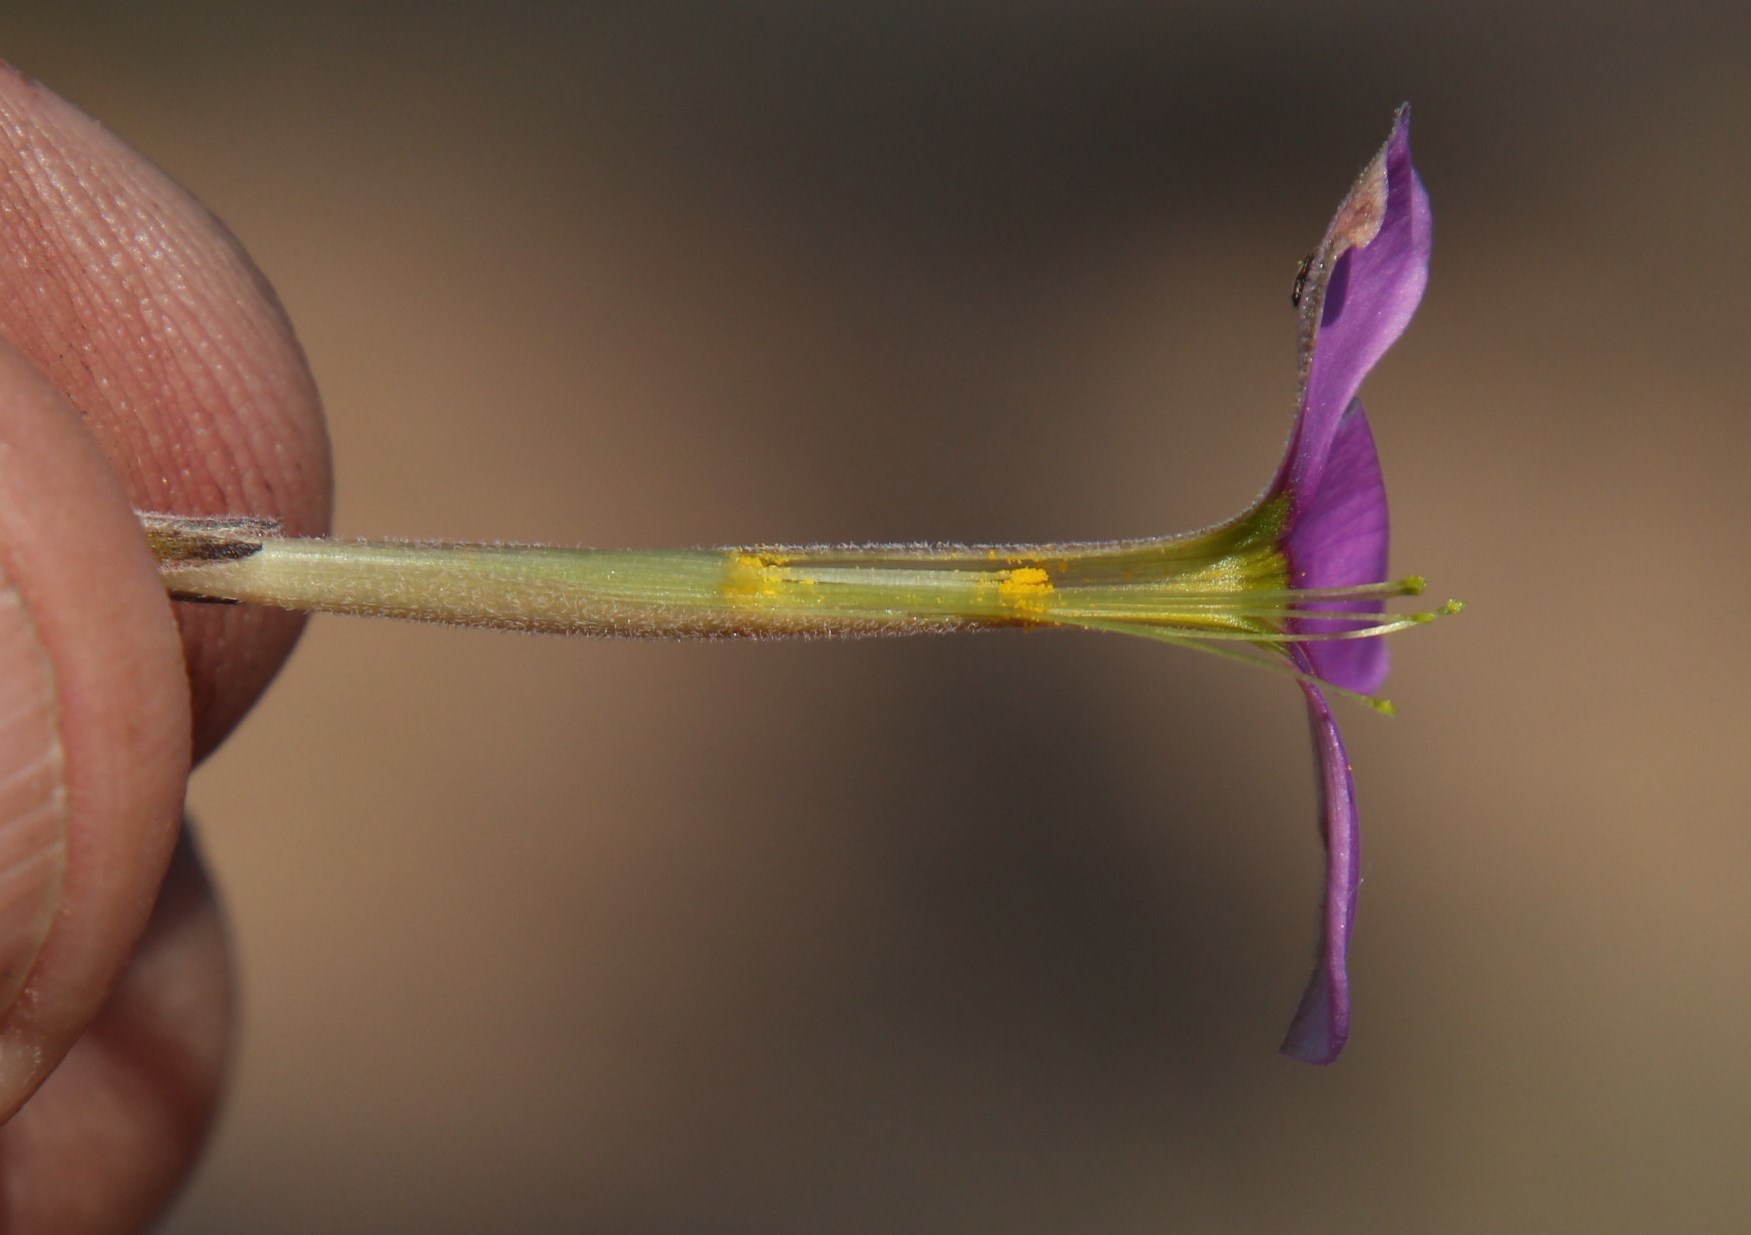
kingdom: Plantae
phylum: Tracheophyta
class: Magnoliopsida
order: Oxalidales
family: Oxalidaceae
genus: Oxalis
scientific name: Oxalis hirta
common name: Tropical woodsorrel
